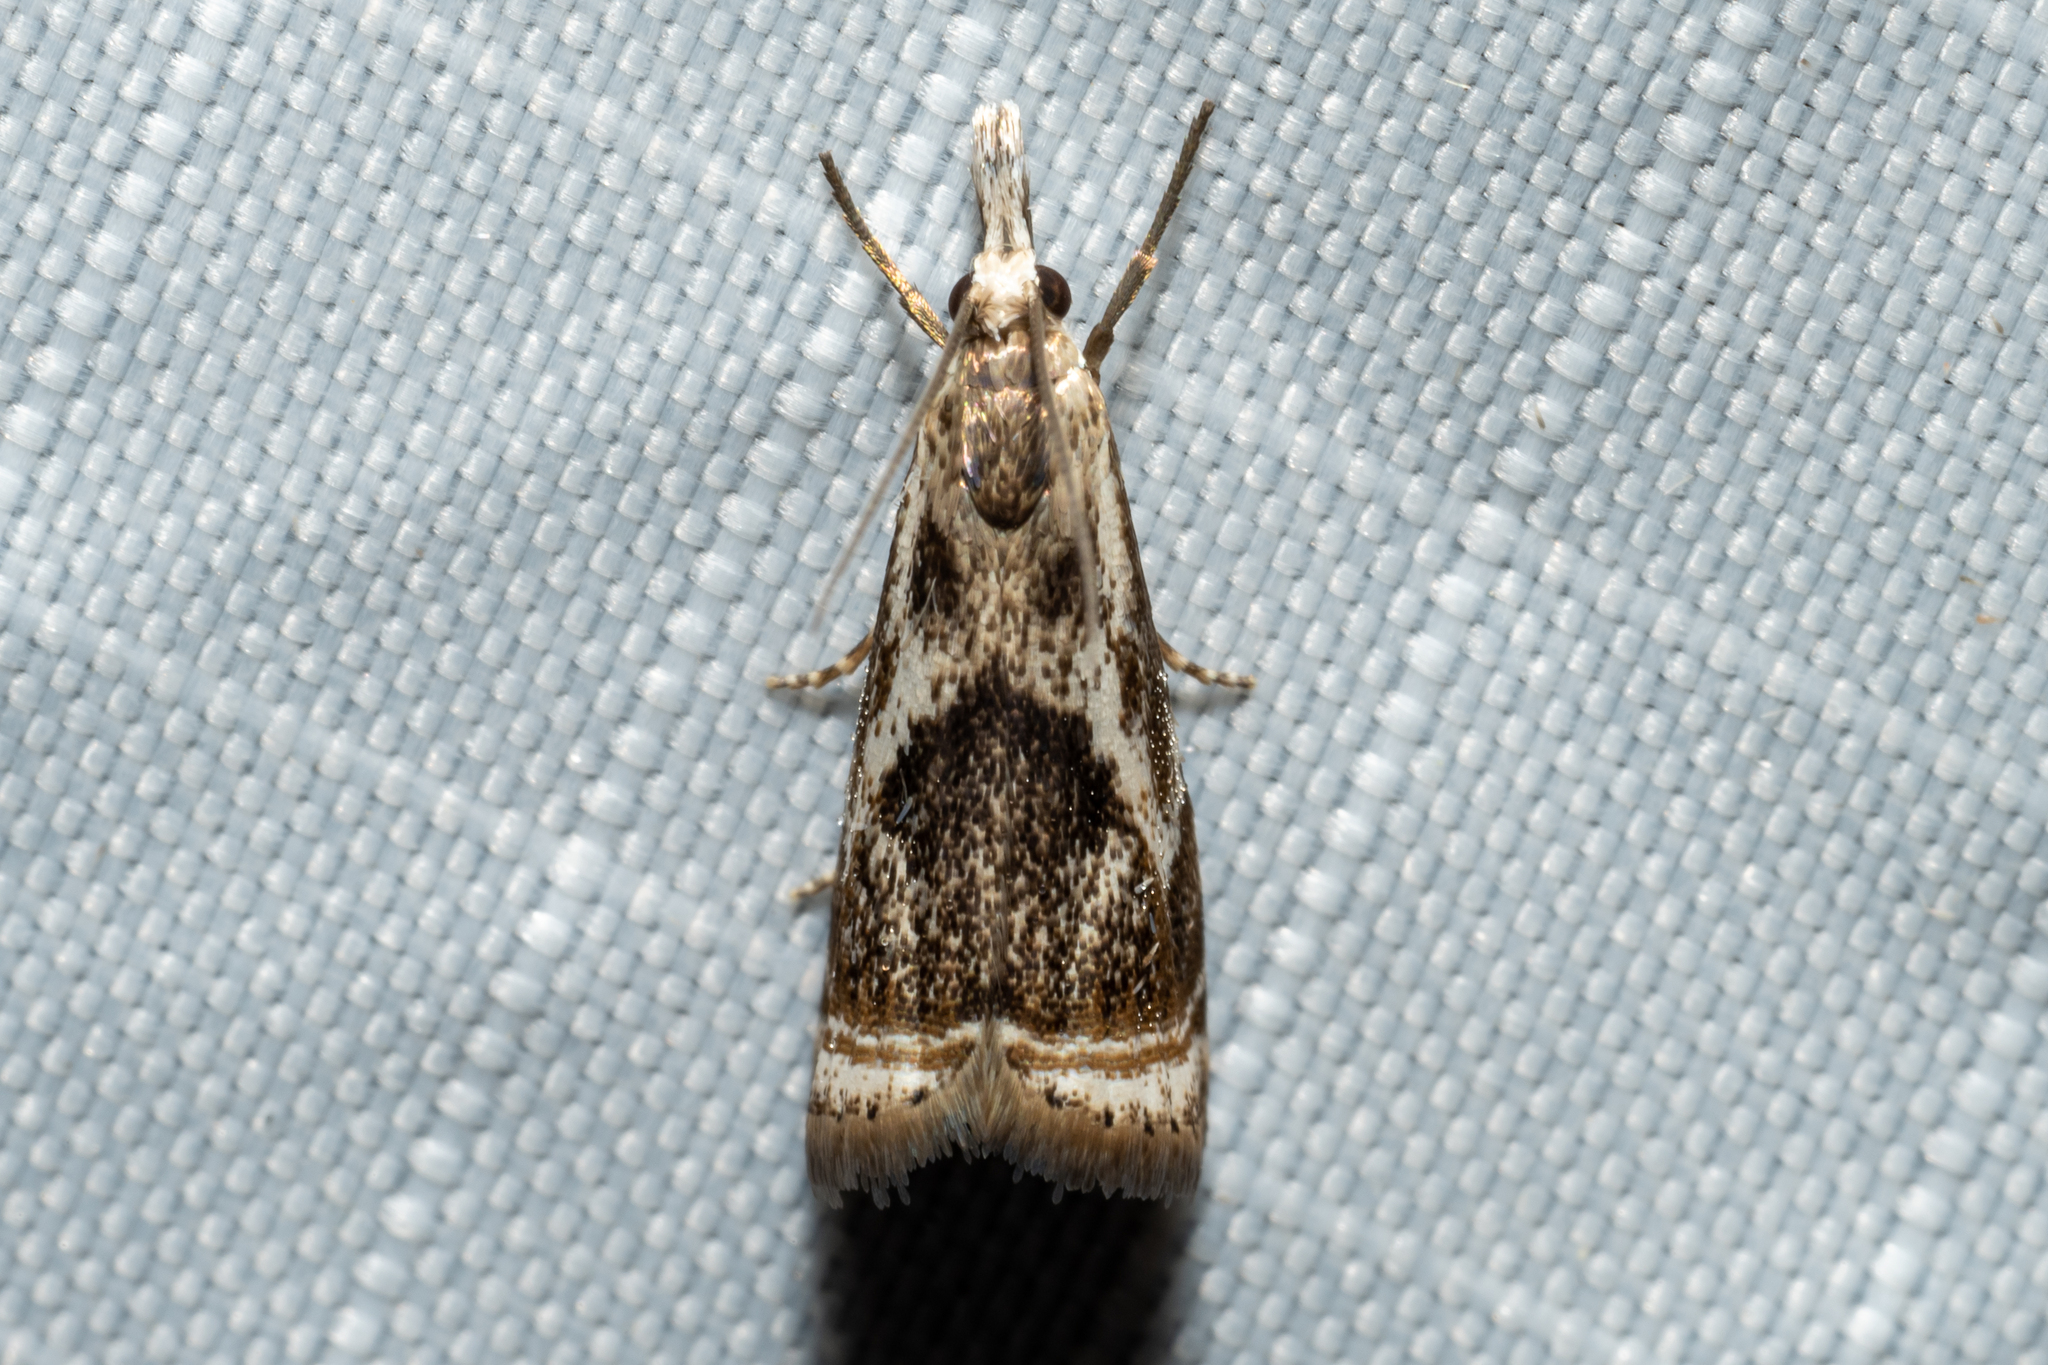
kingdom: Animalia
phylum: Arthropoda
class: Insecta
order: Lepidoptera
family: Crambidae
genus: Microcrambus
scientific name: Microcrambus elegans
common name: Elegant grass-veneer
